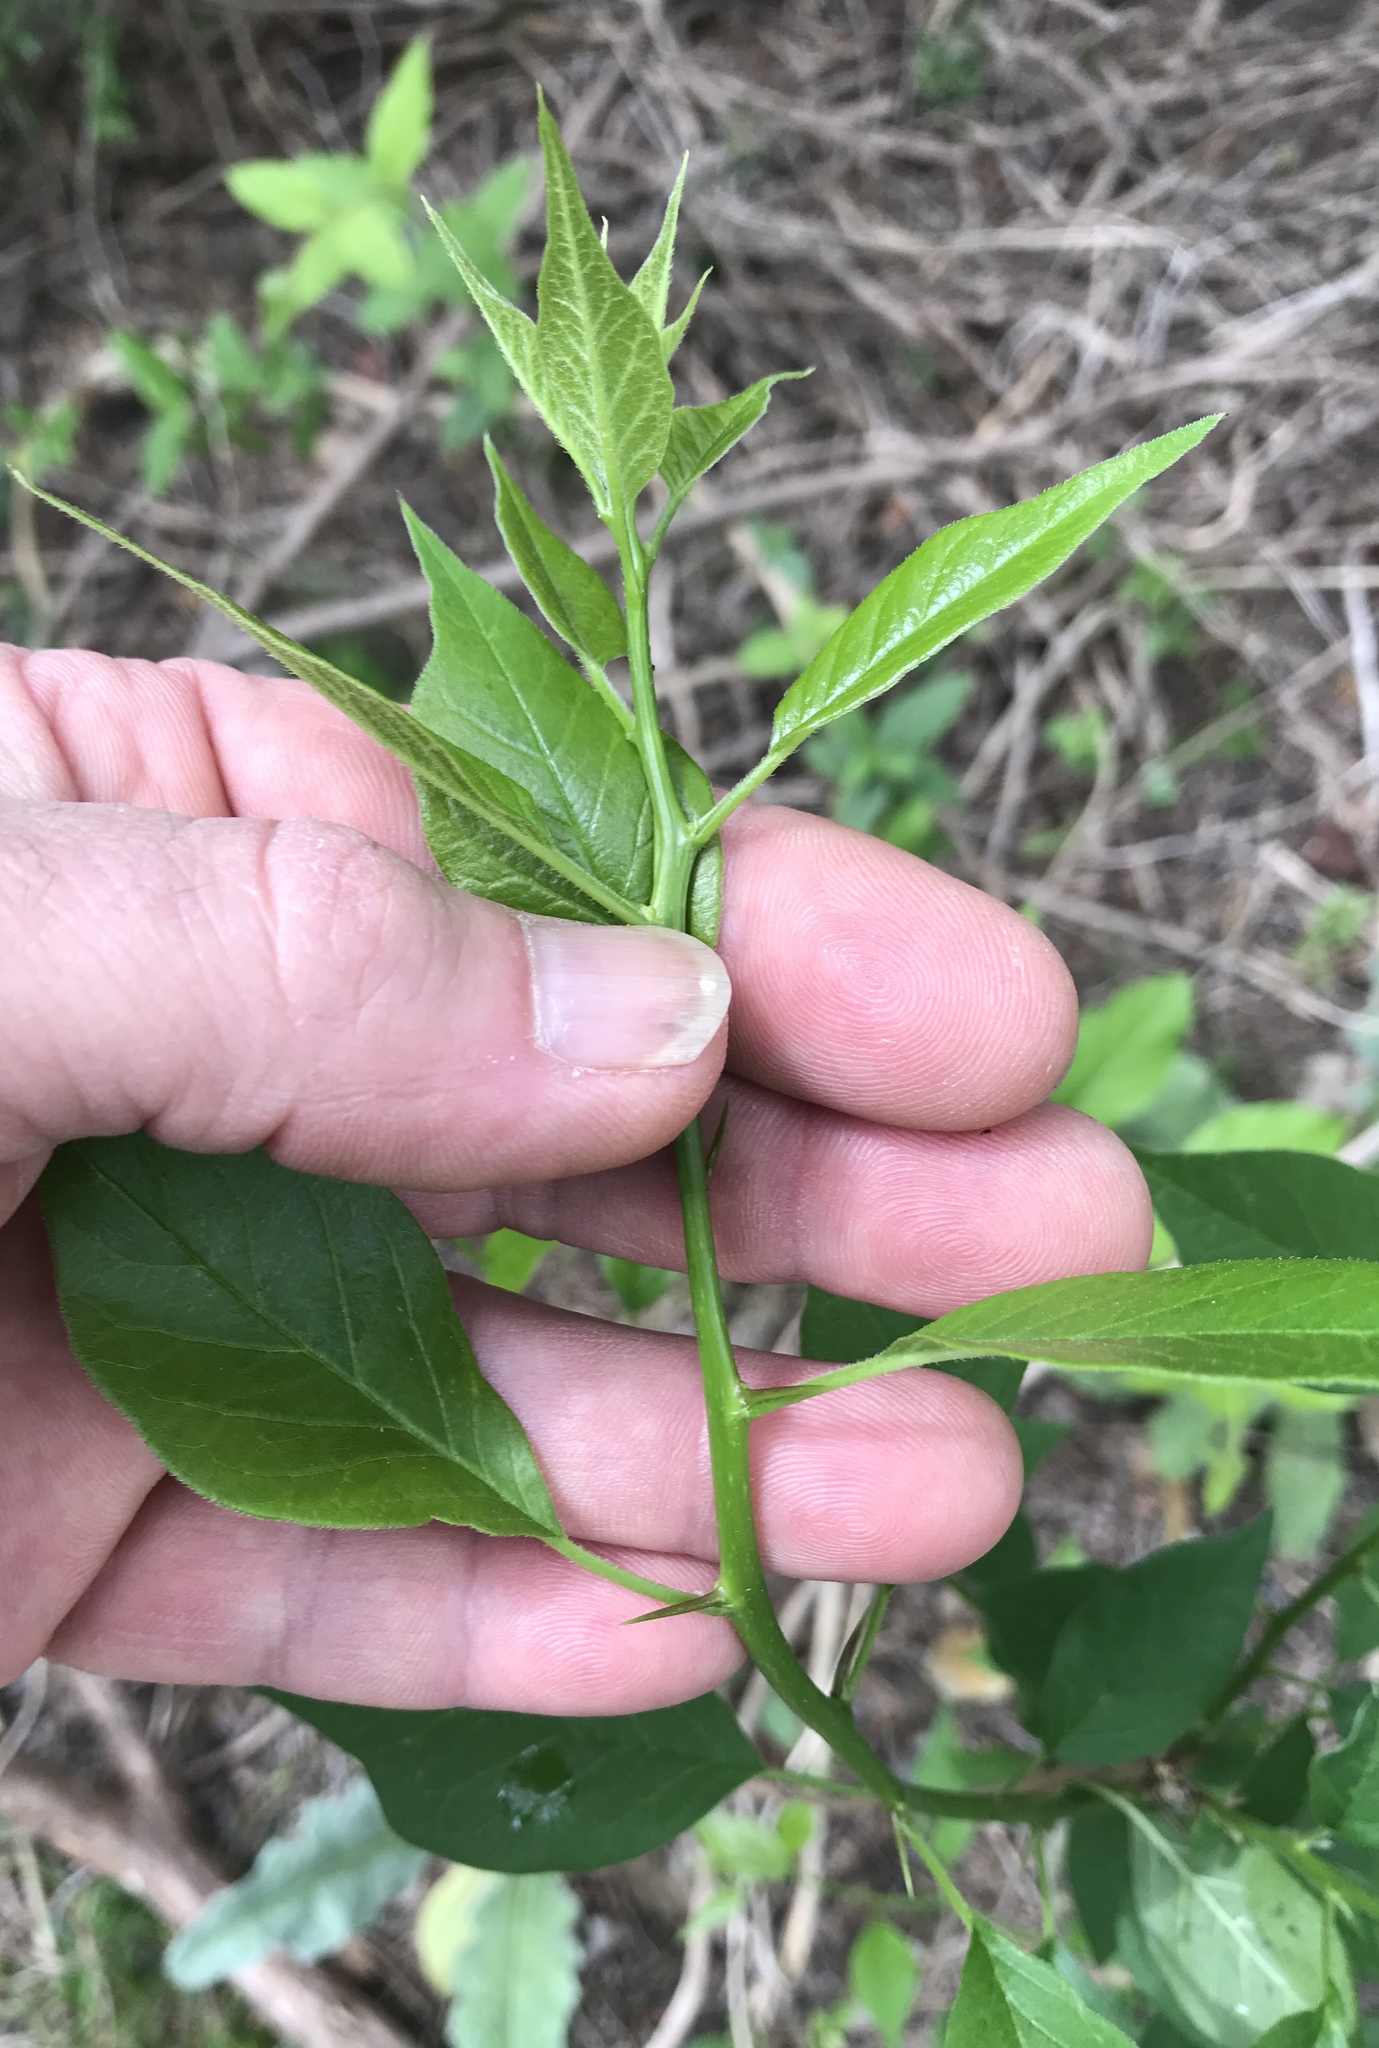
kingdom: Plantae
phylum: Tracheophyta
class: Magnoliopsida
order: Rosales
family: Moraceae
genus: Maclura
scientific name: Maclura pomifera
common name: Osage-orange
